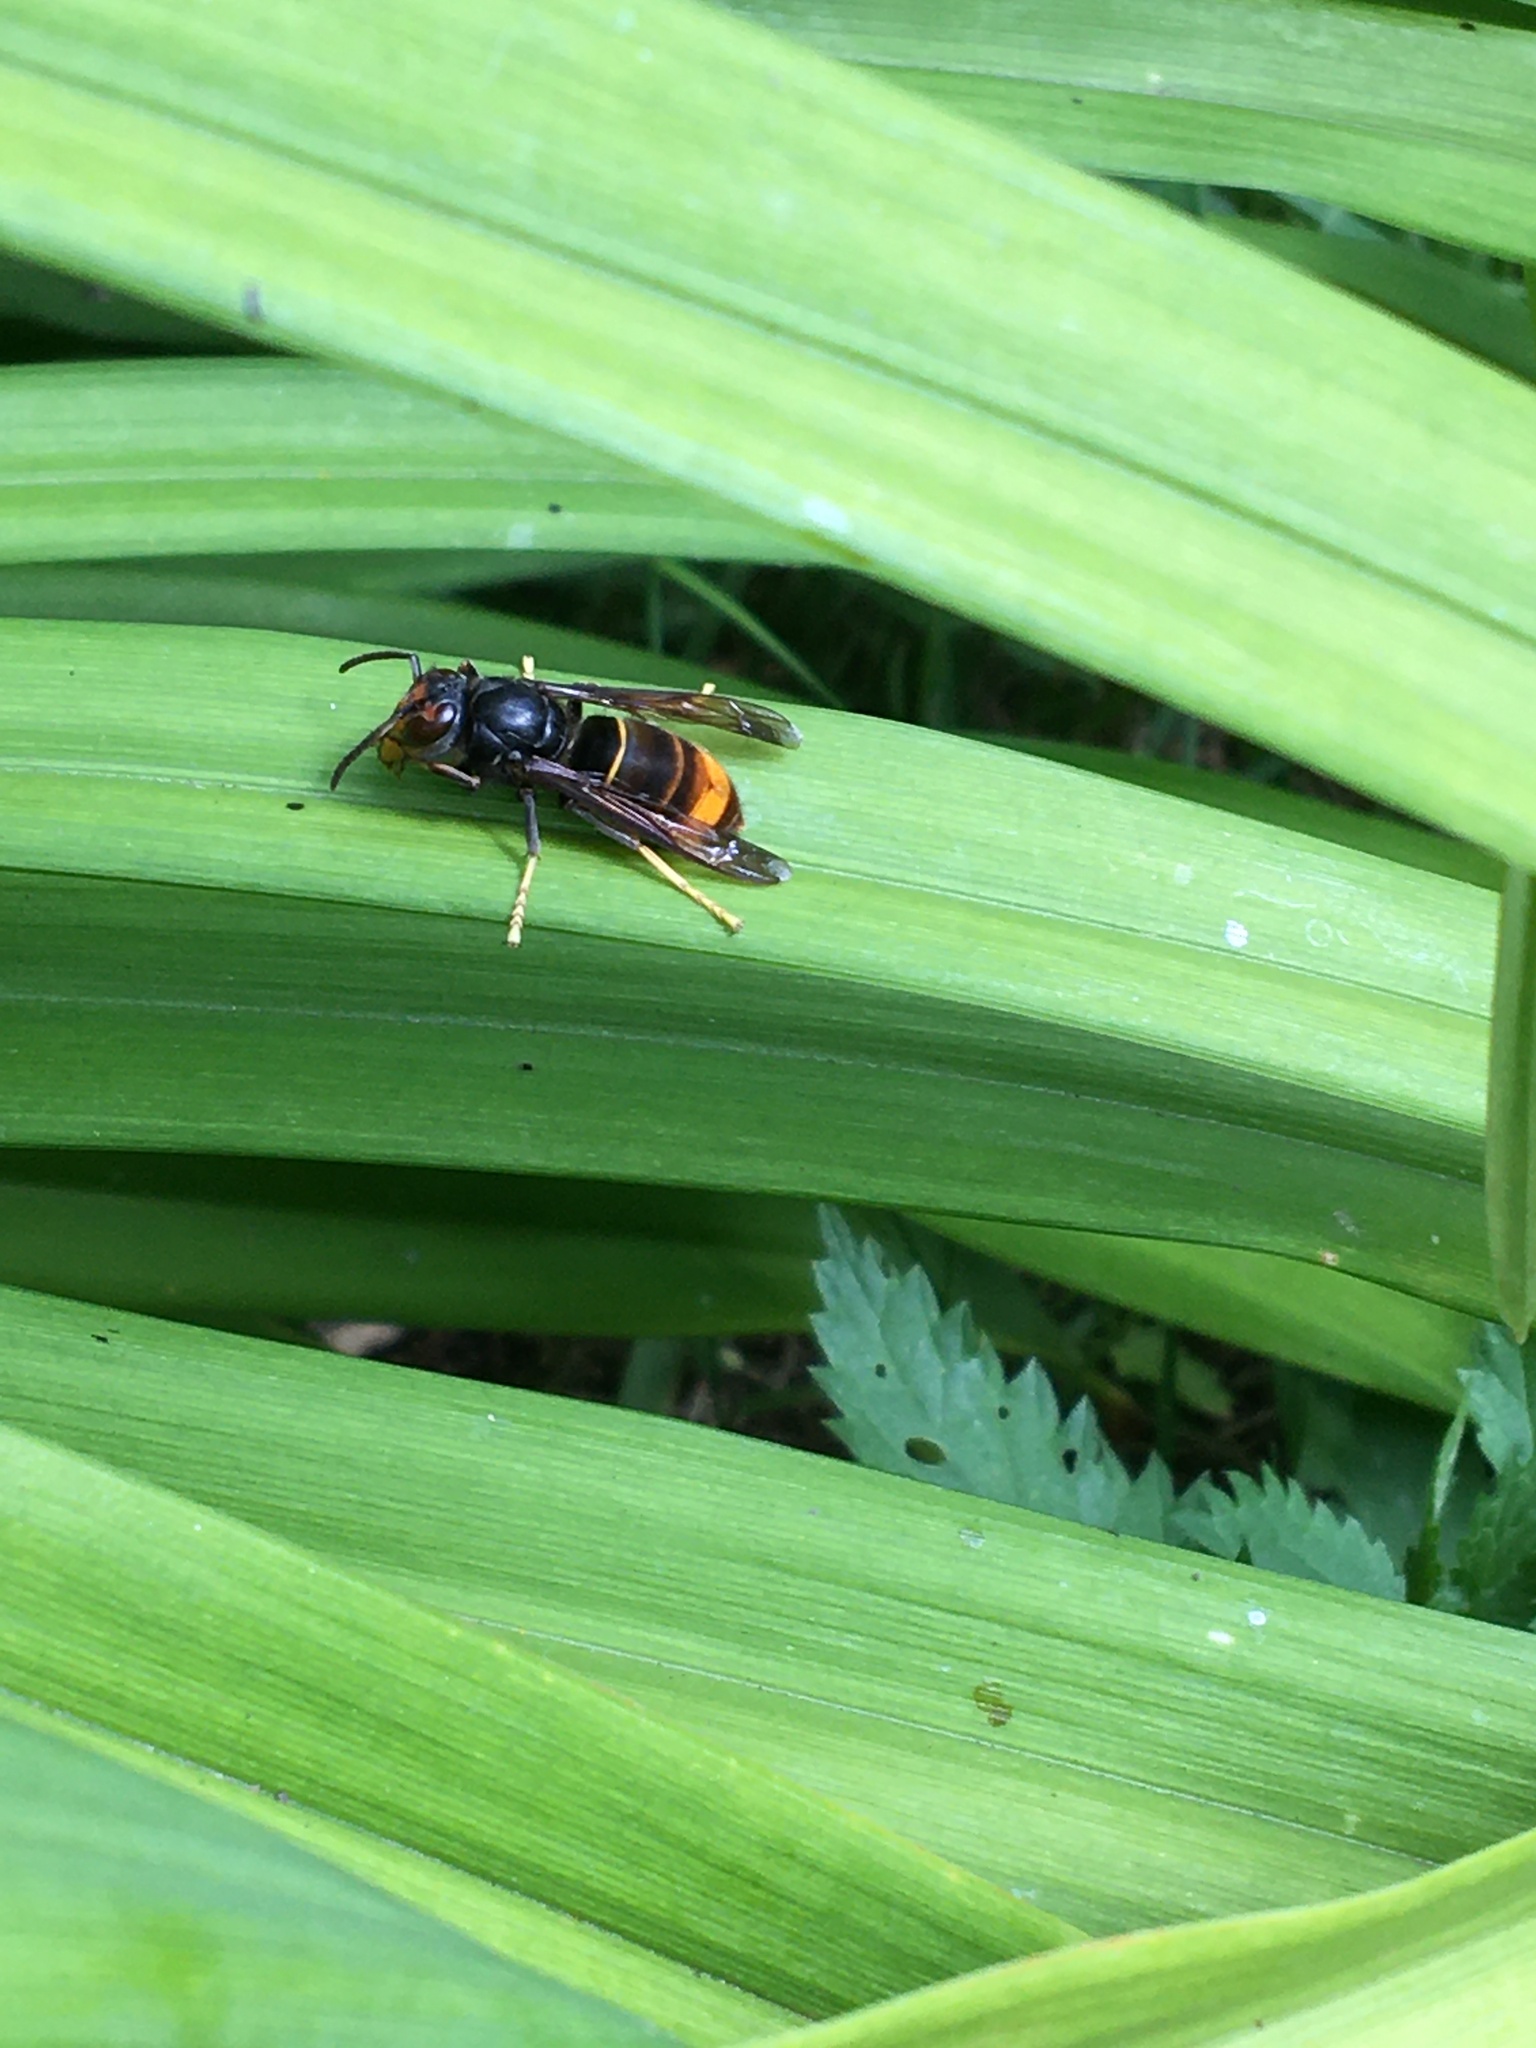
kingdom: Animalia
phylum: Arthropoda
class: Insecta
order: Hymenoptera
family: Vespidae
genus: Vespa
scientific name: Vespa velutina
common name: Asian hornet
